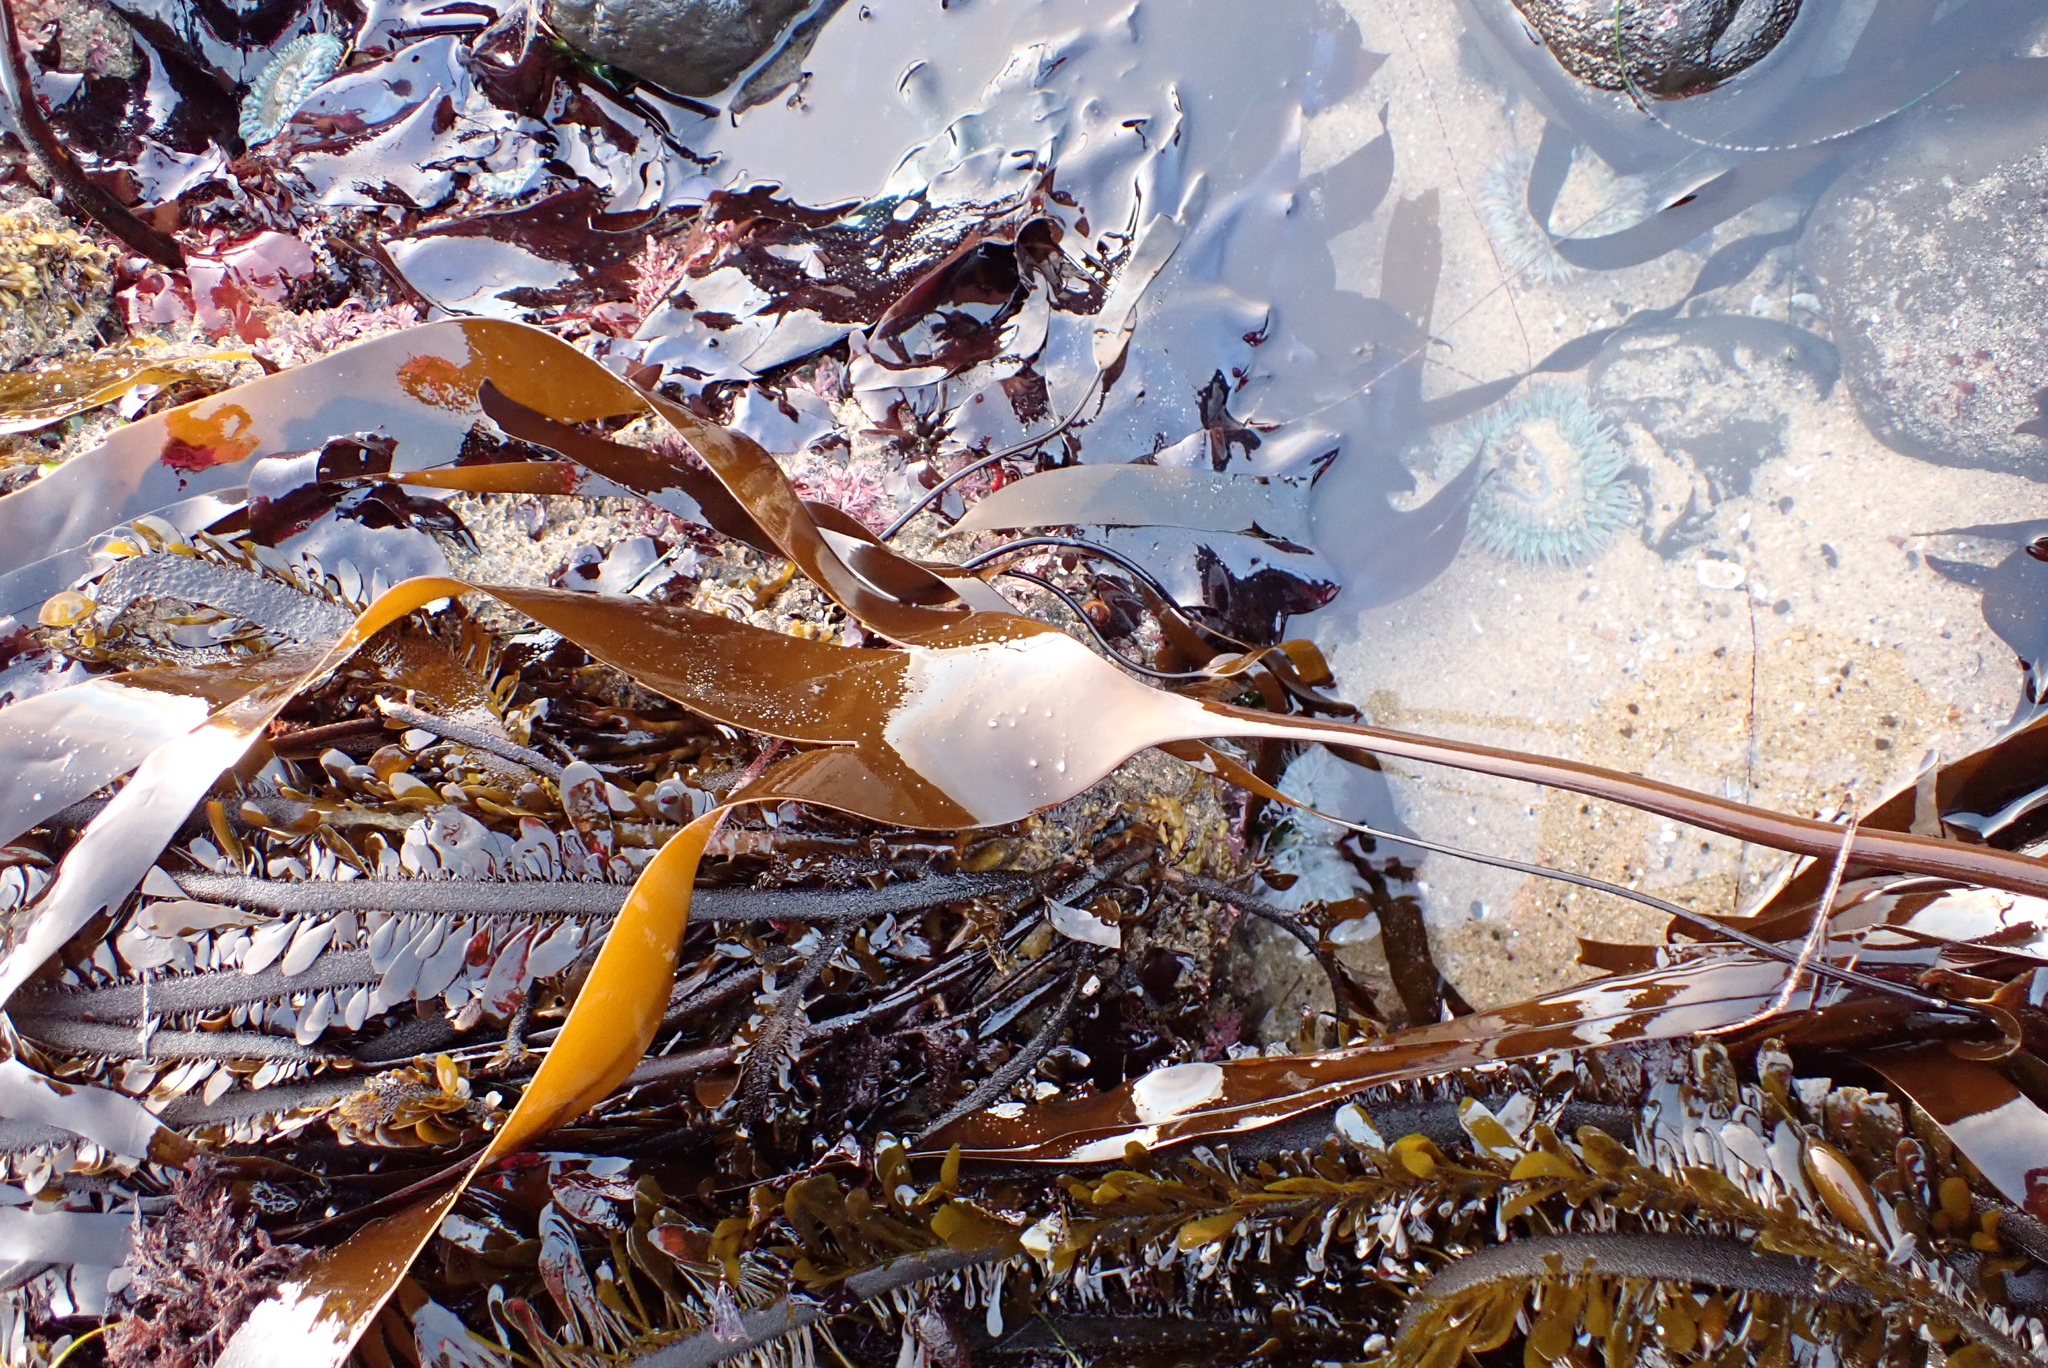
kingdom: Chromista
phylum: Ochrophyta
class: Phaeophyceae
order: Laminariales
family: Laminariaceae
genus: Laminaria
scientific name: Laminaria setchellii
